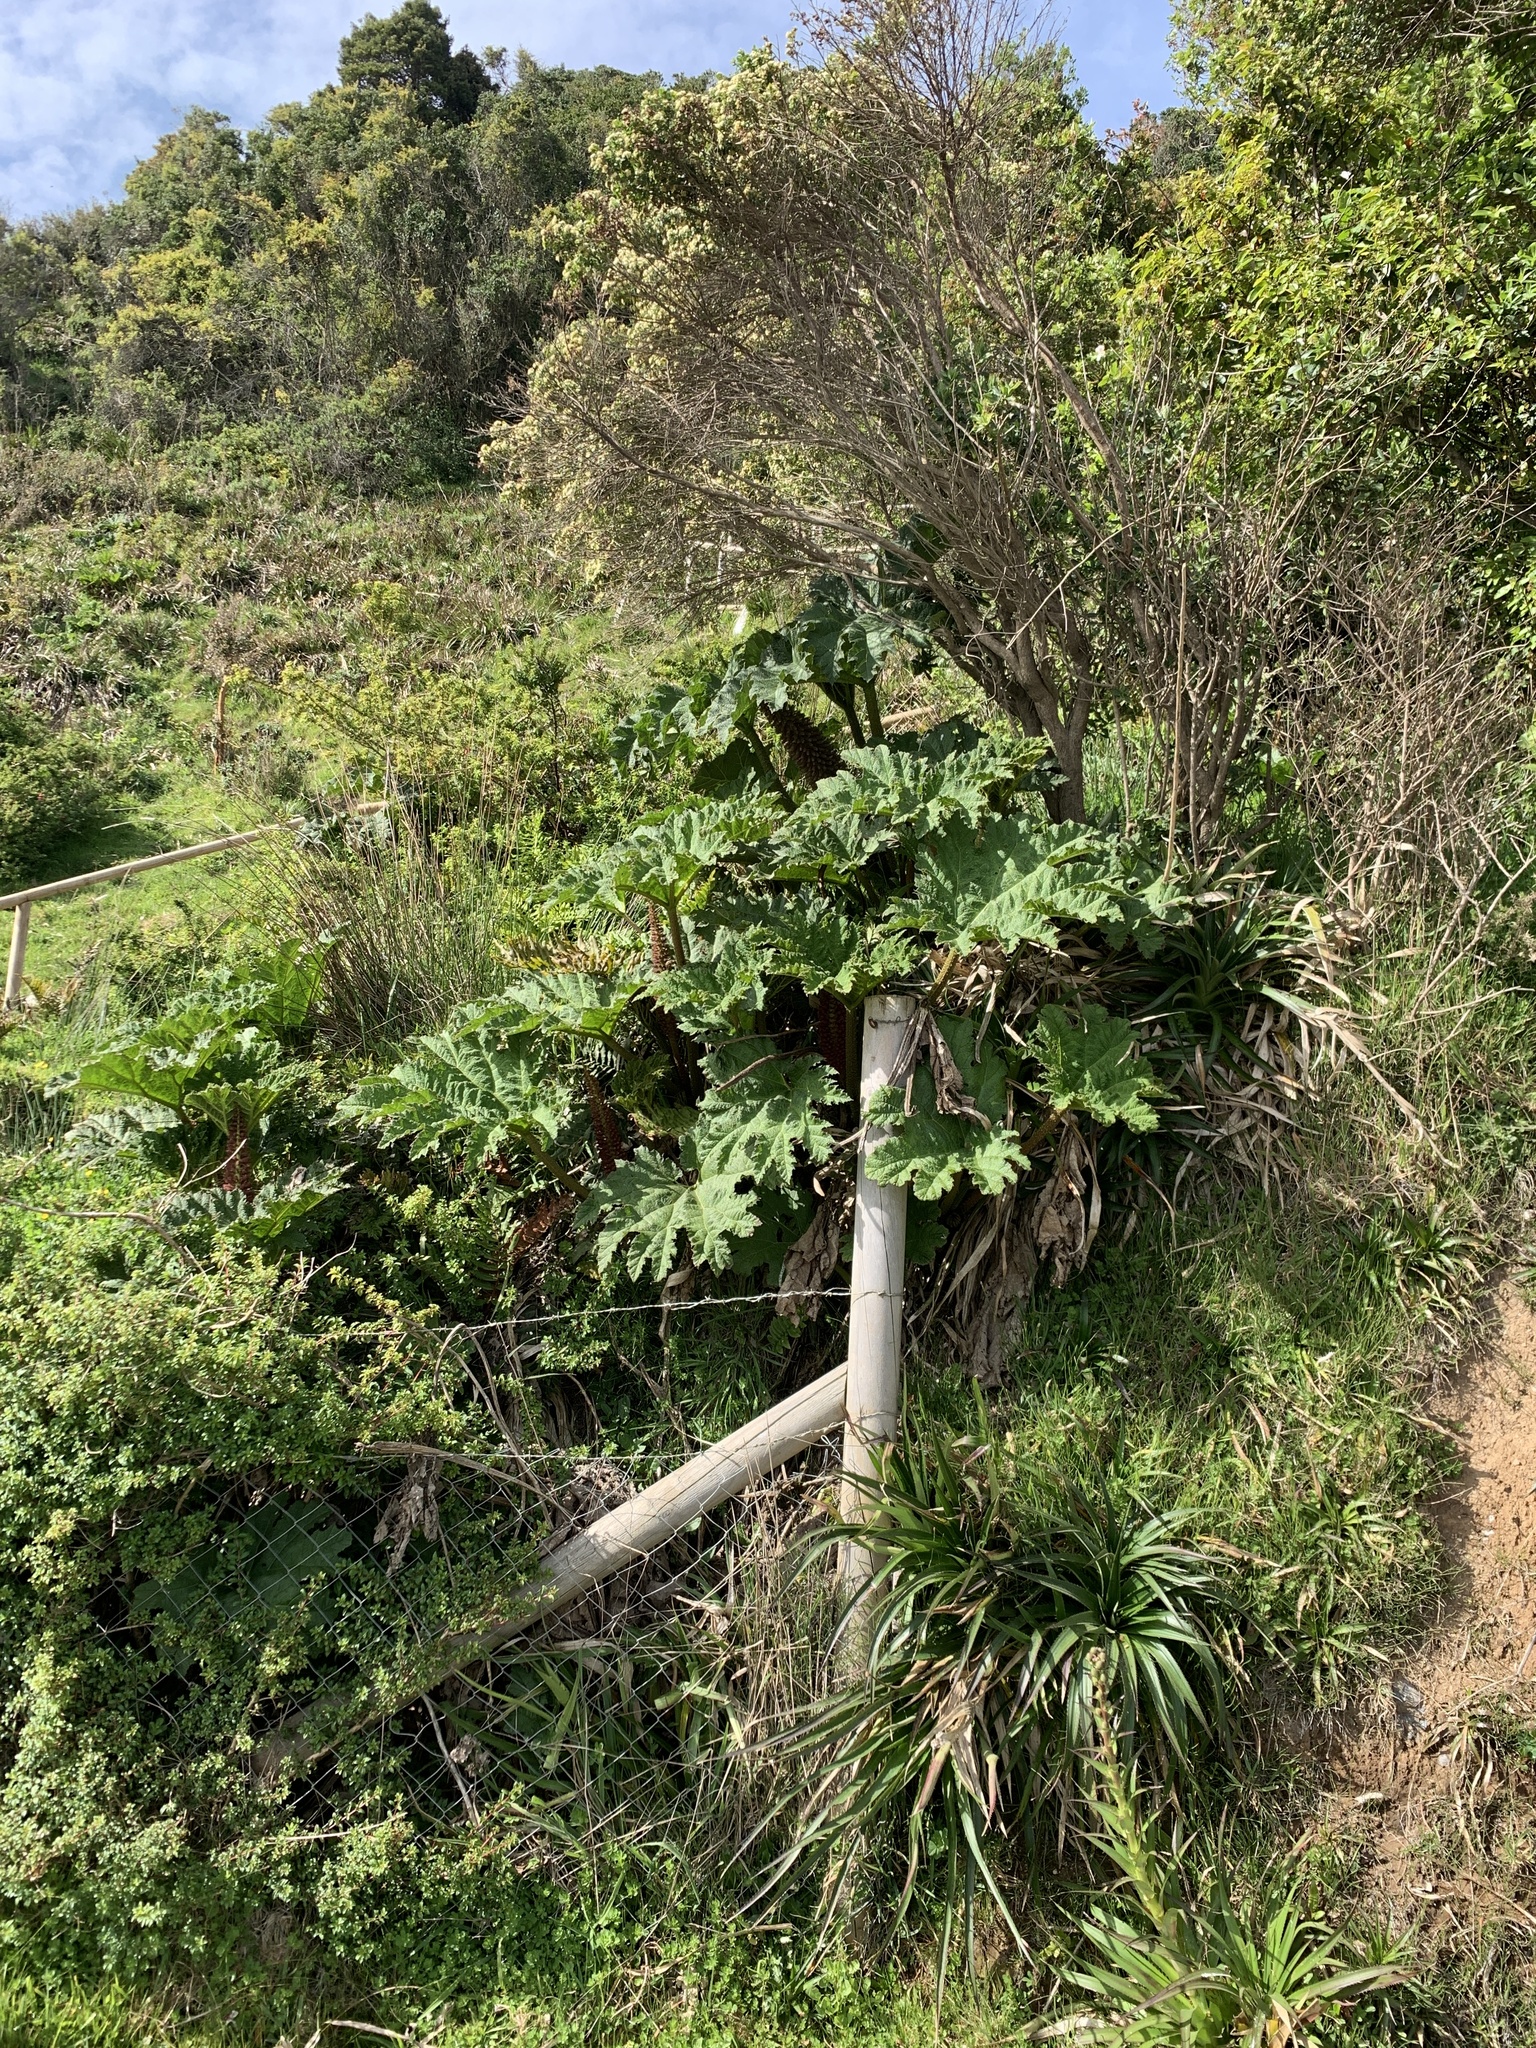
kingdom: Plantae
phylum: Tracheophyta
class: Magnoliopsida
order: Gunnerales
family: Gunneraceae
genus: Gunnera
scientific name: Gunnera tinctoria
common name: Giant-rhubarb
